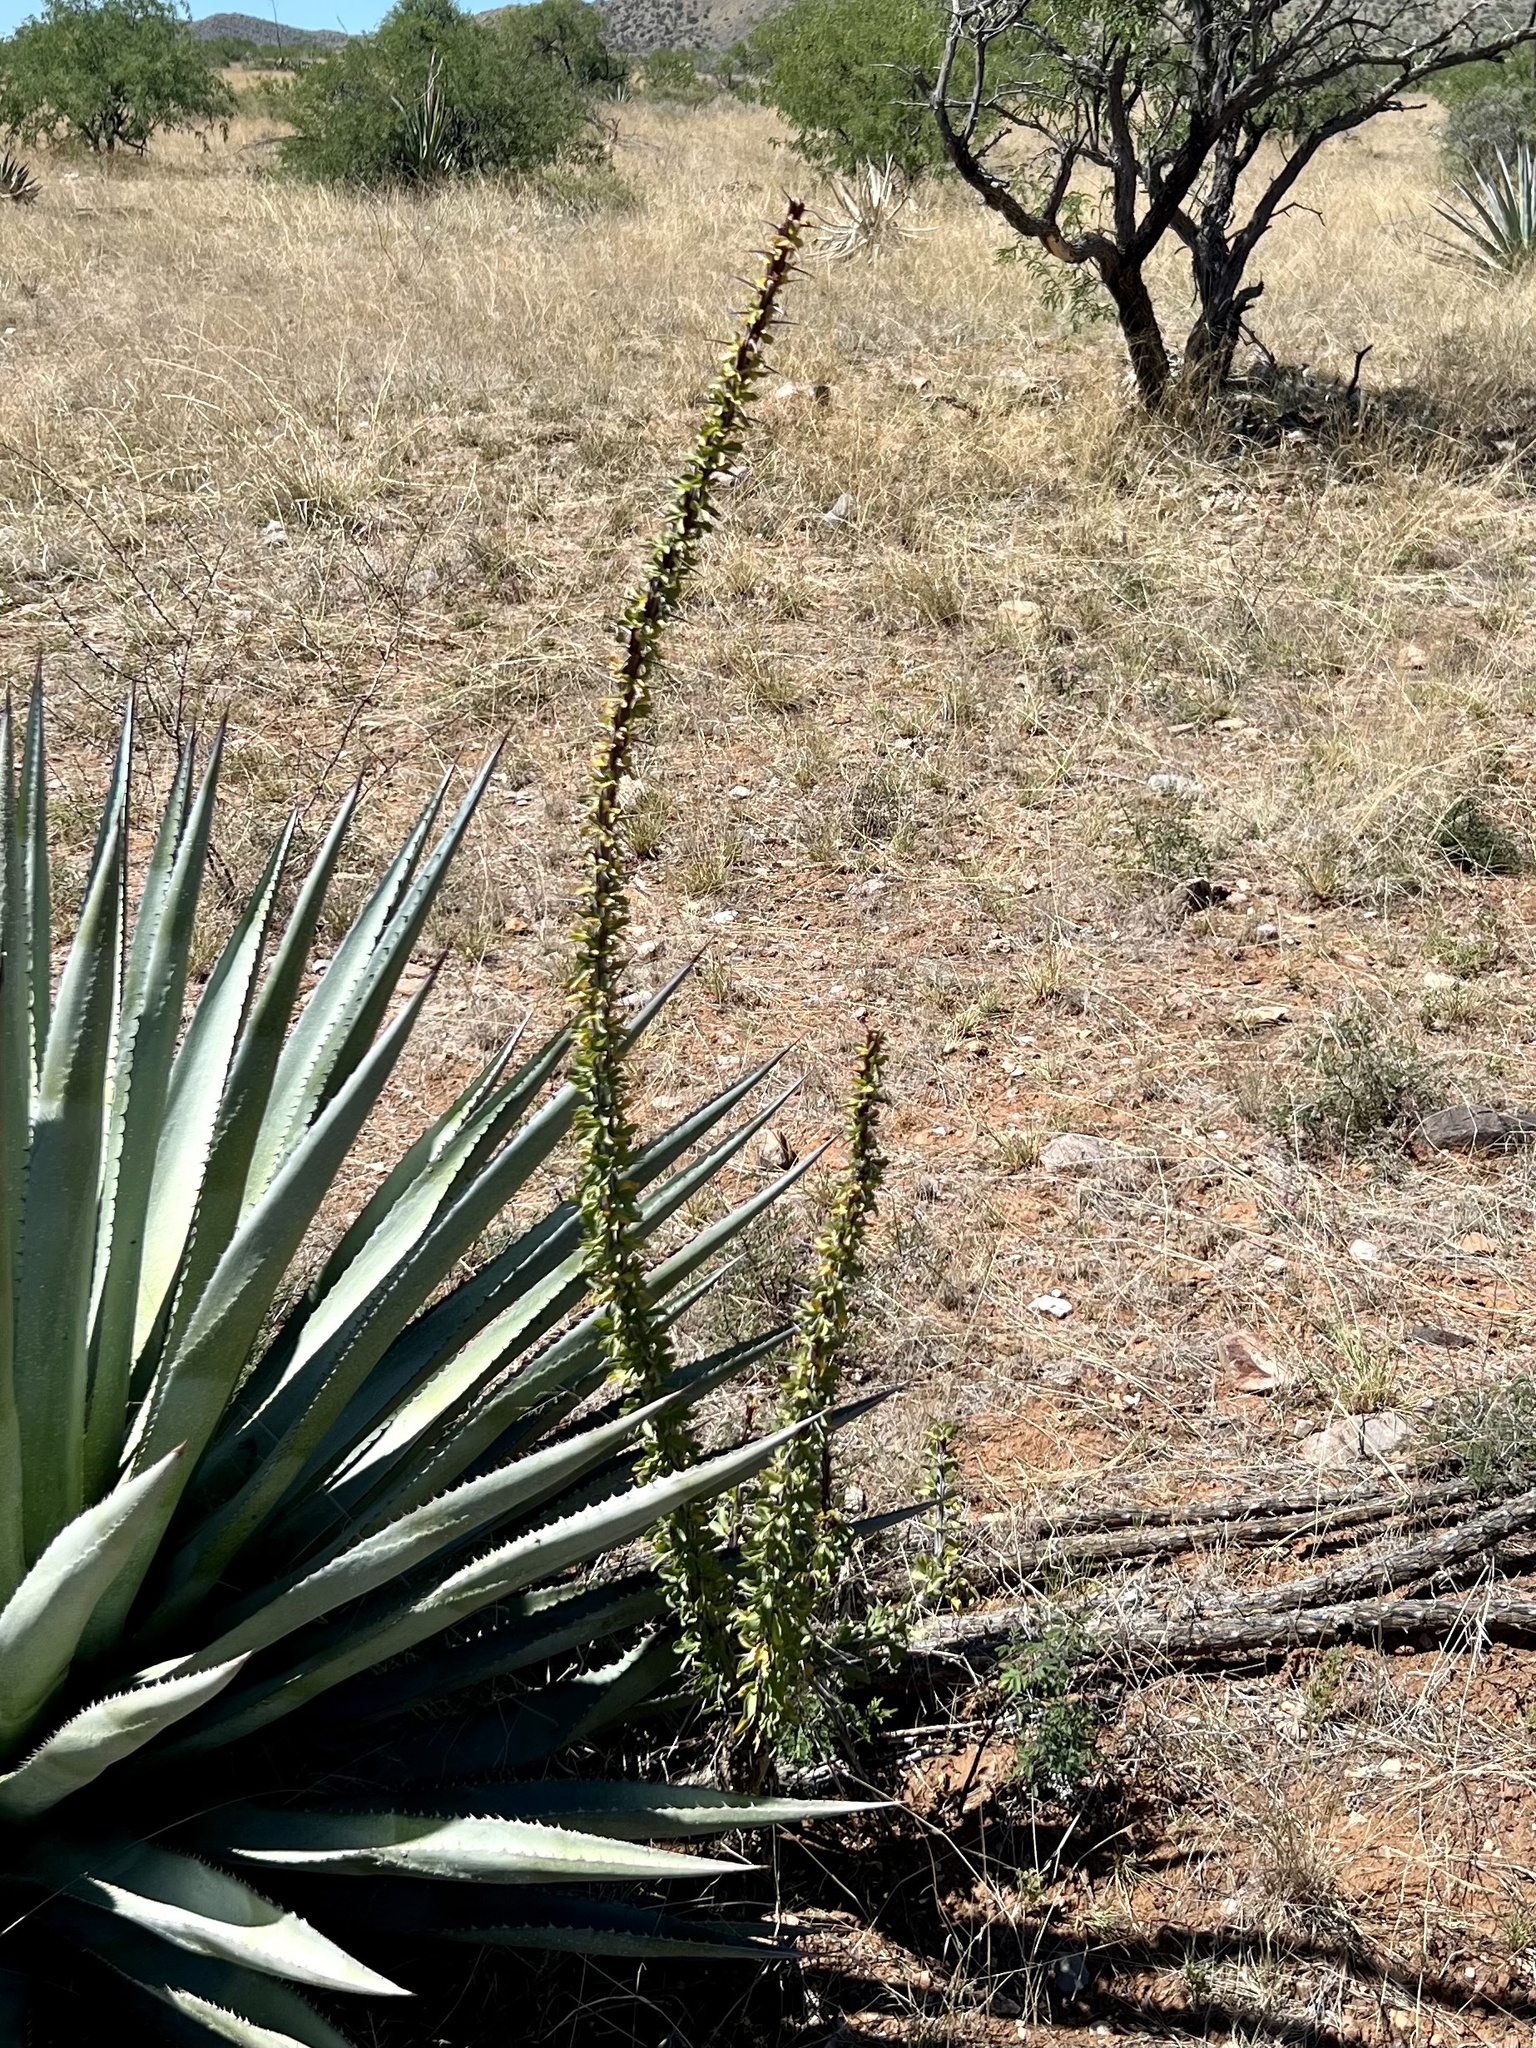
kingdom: Plantae
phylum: Tracheophyta
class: Magnoliopsida
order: Ericales
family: Fouquieriaceae
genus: Fouquieria
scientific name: Fouquieria splendens
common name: Vine-cactus
